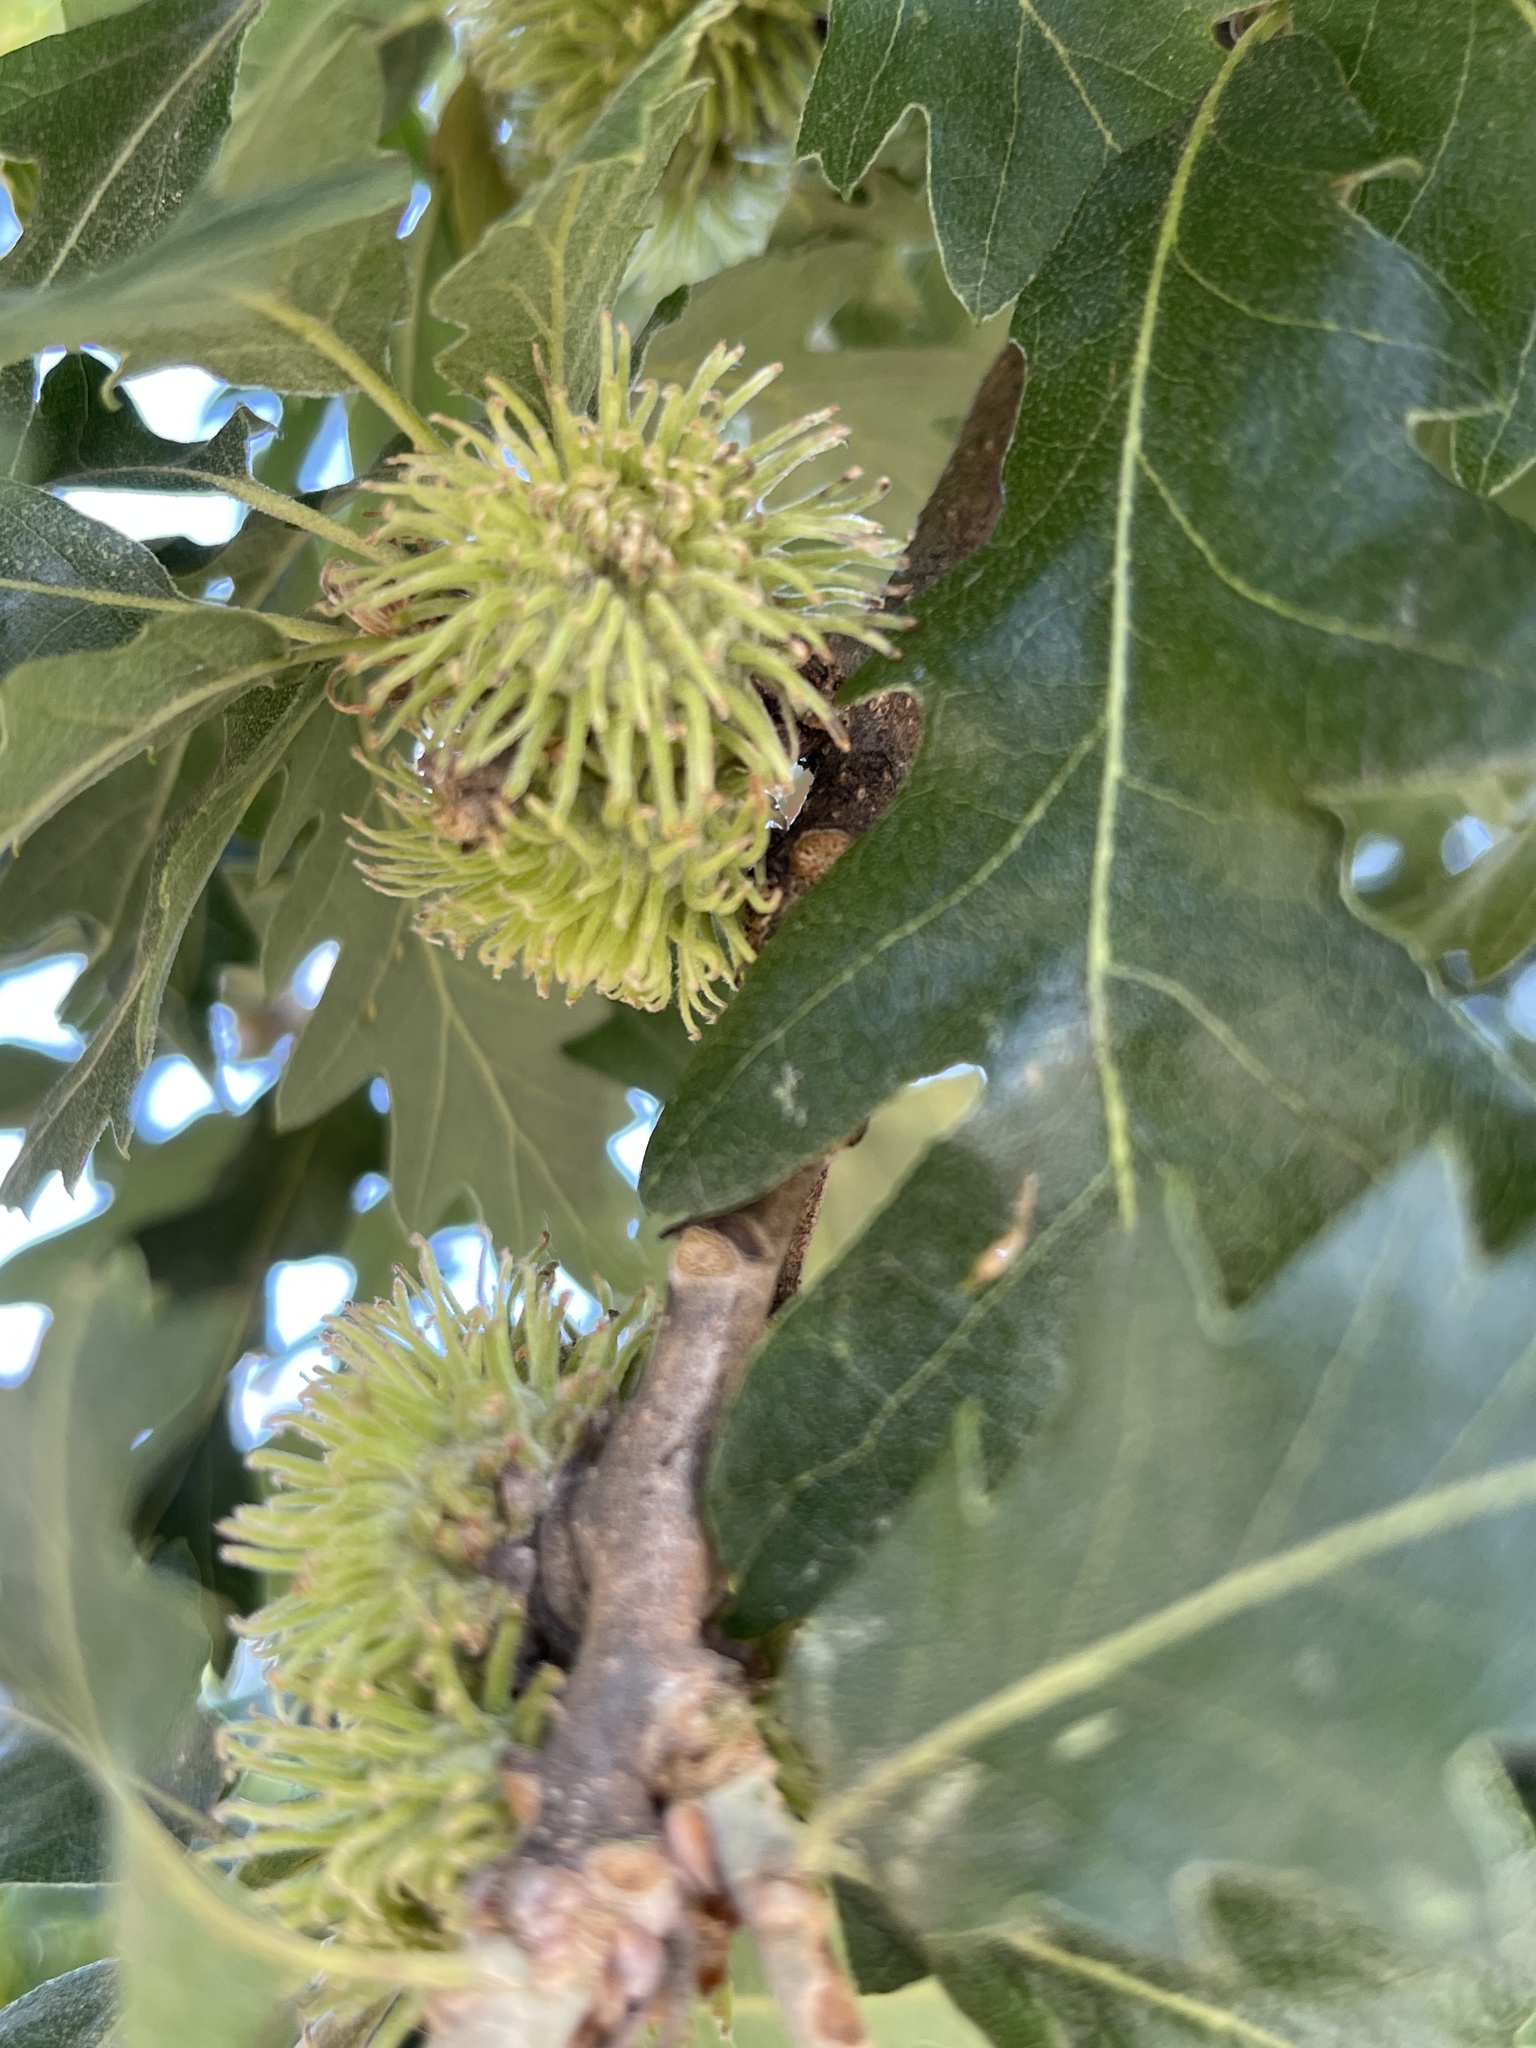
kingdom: Plantae
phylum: Tracheophyta
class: Magnoliopsida
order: Fagales
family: Fagaceae
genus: Quercus
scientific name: Quercus cerris
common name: Turkey oak
